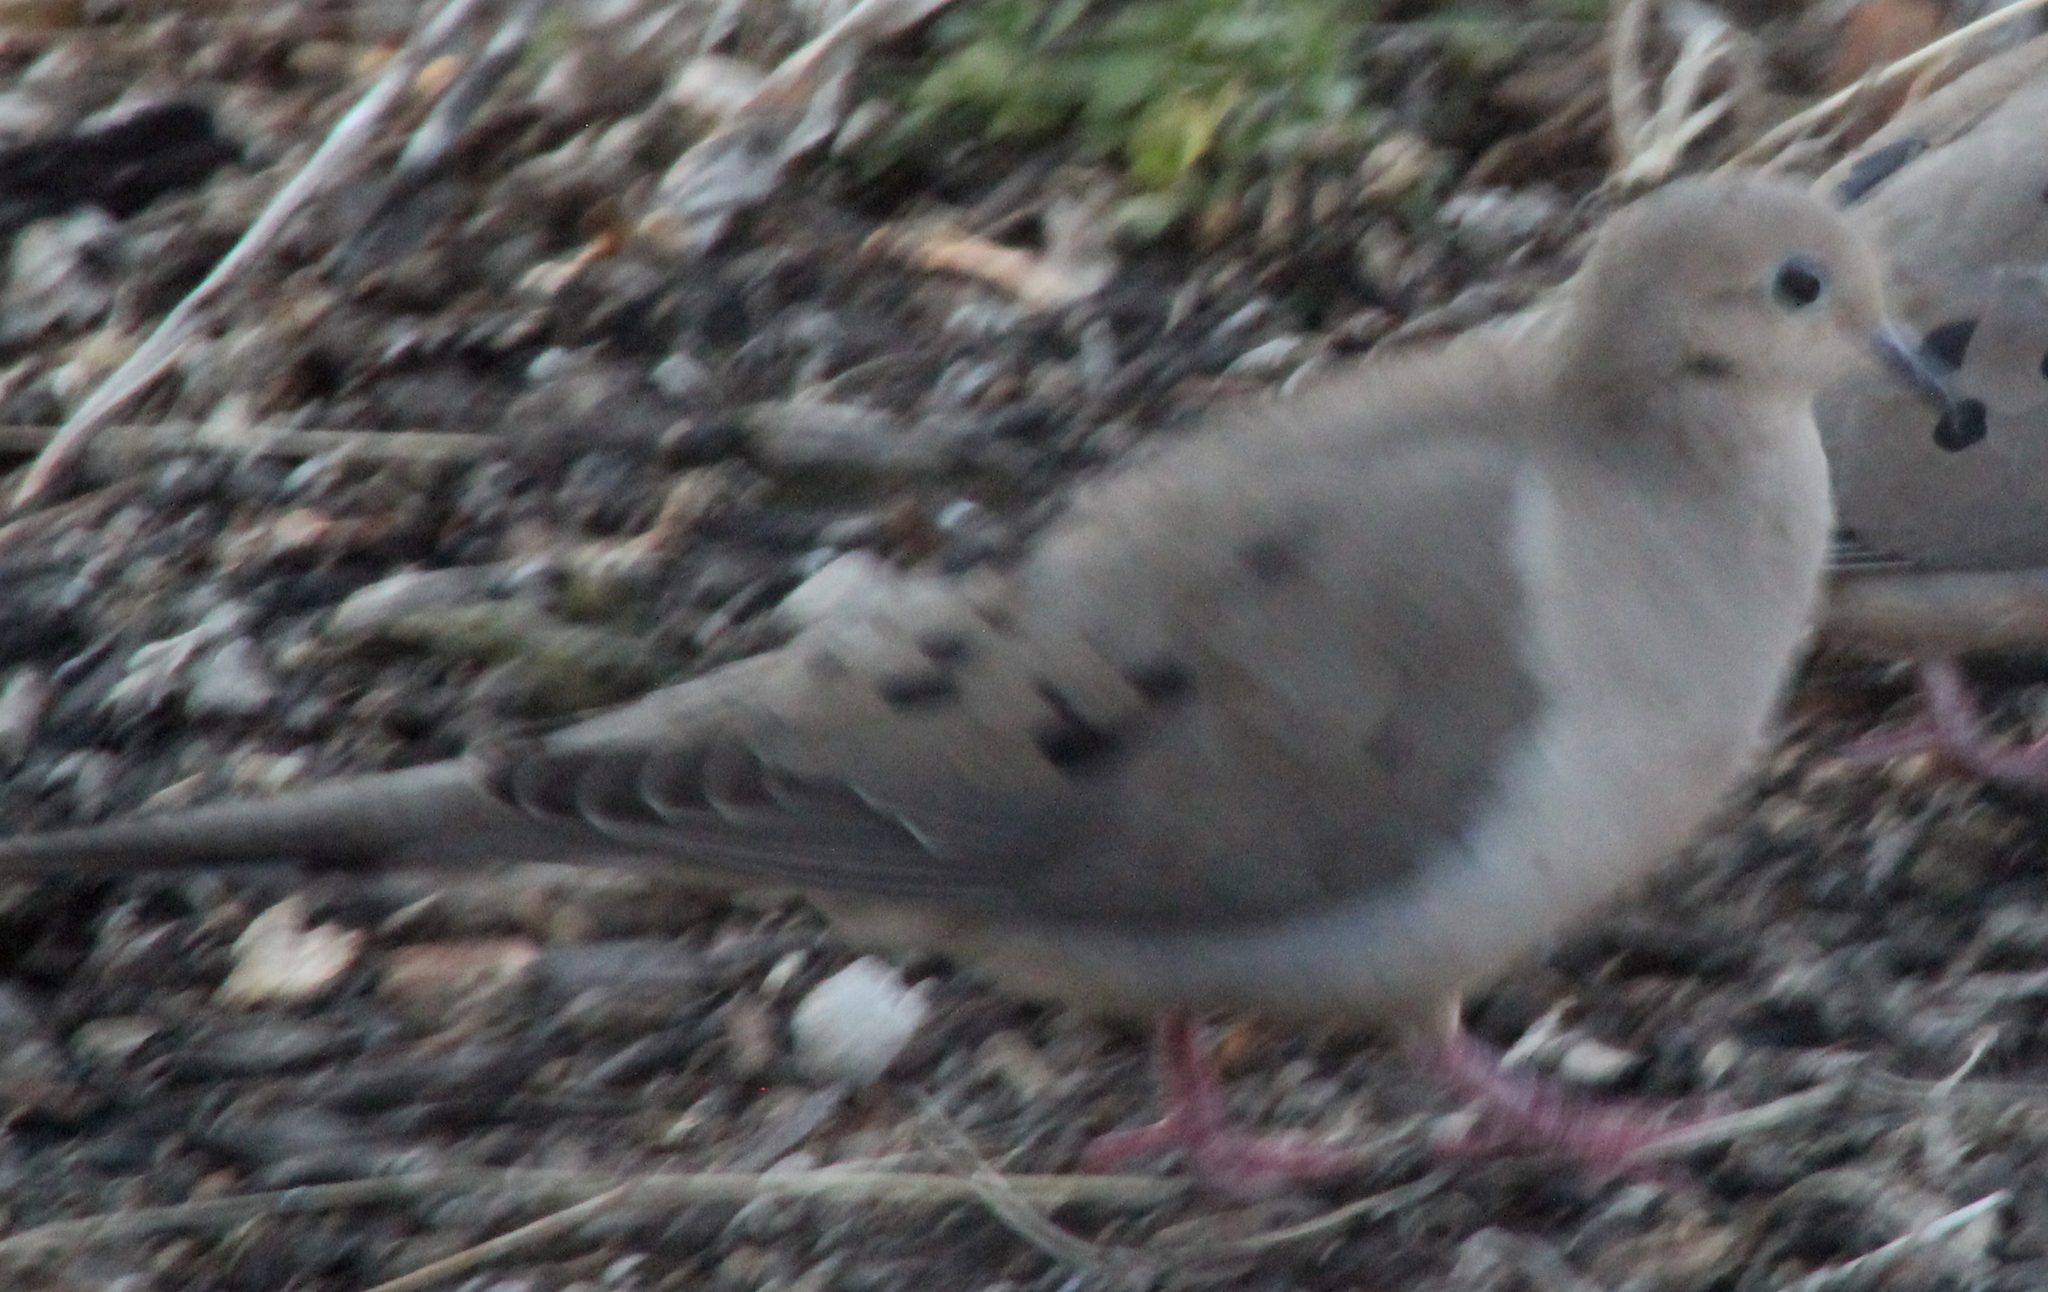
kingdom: Animalia
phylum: Chordata
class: Aves
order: Columbiformes
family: Columbidae
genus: Zenaida
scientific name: Zenaida macroura
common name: Mourning dove
